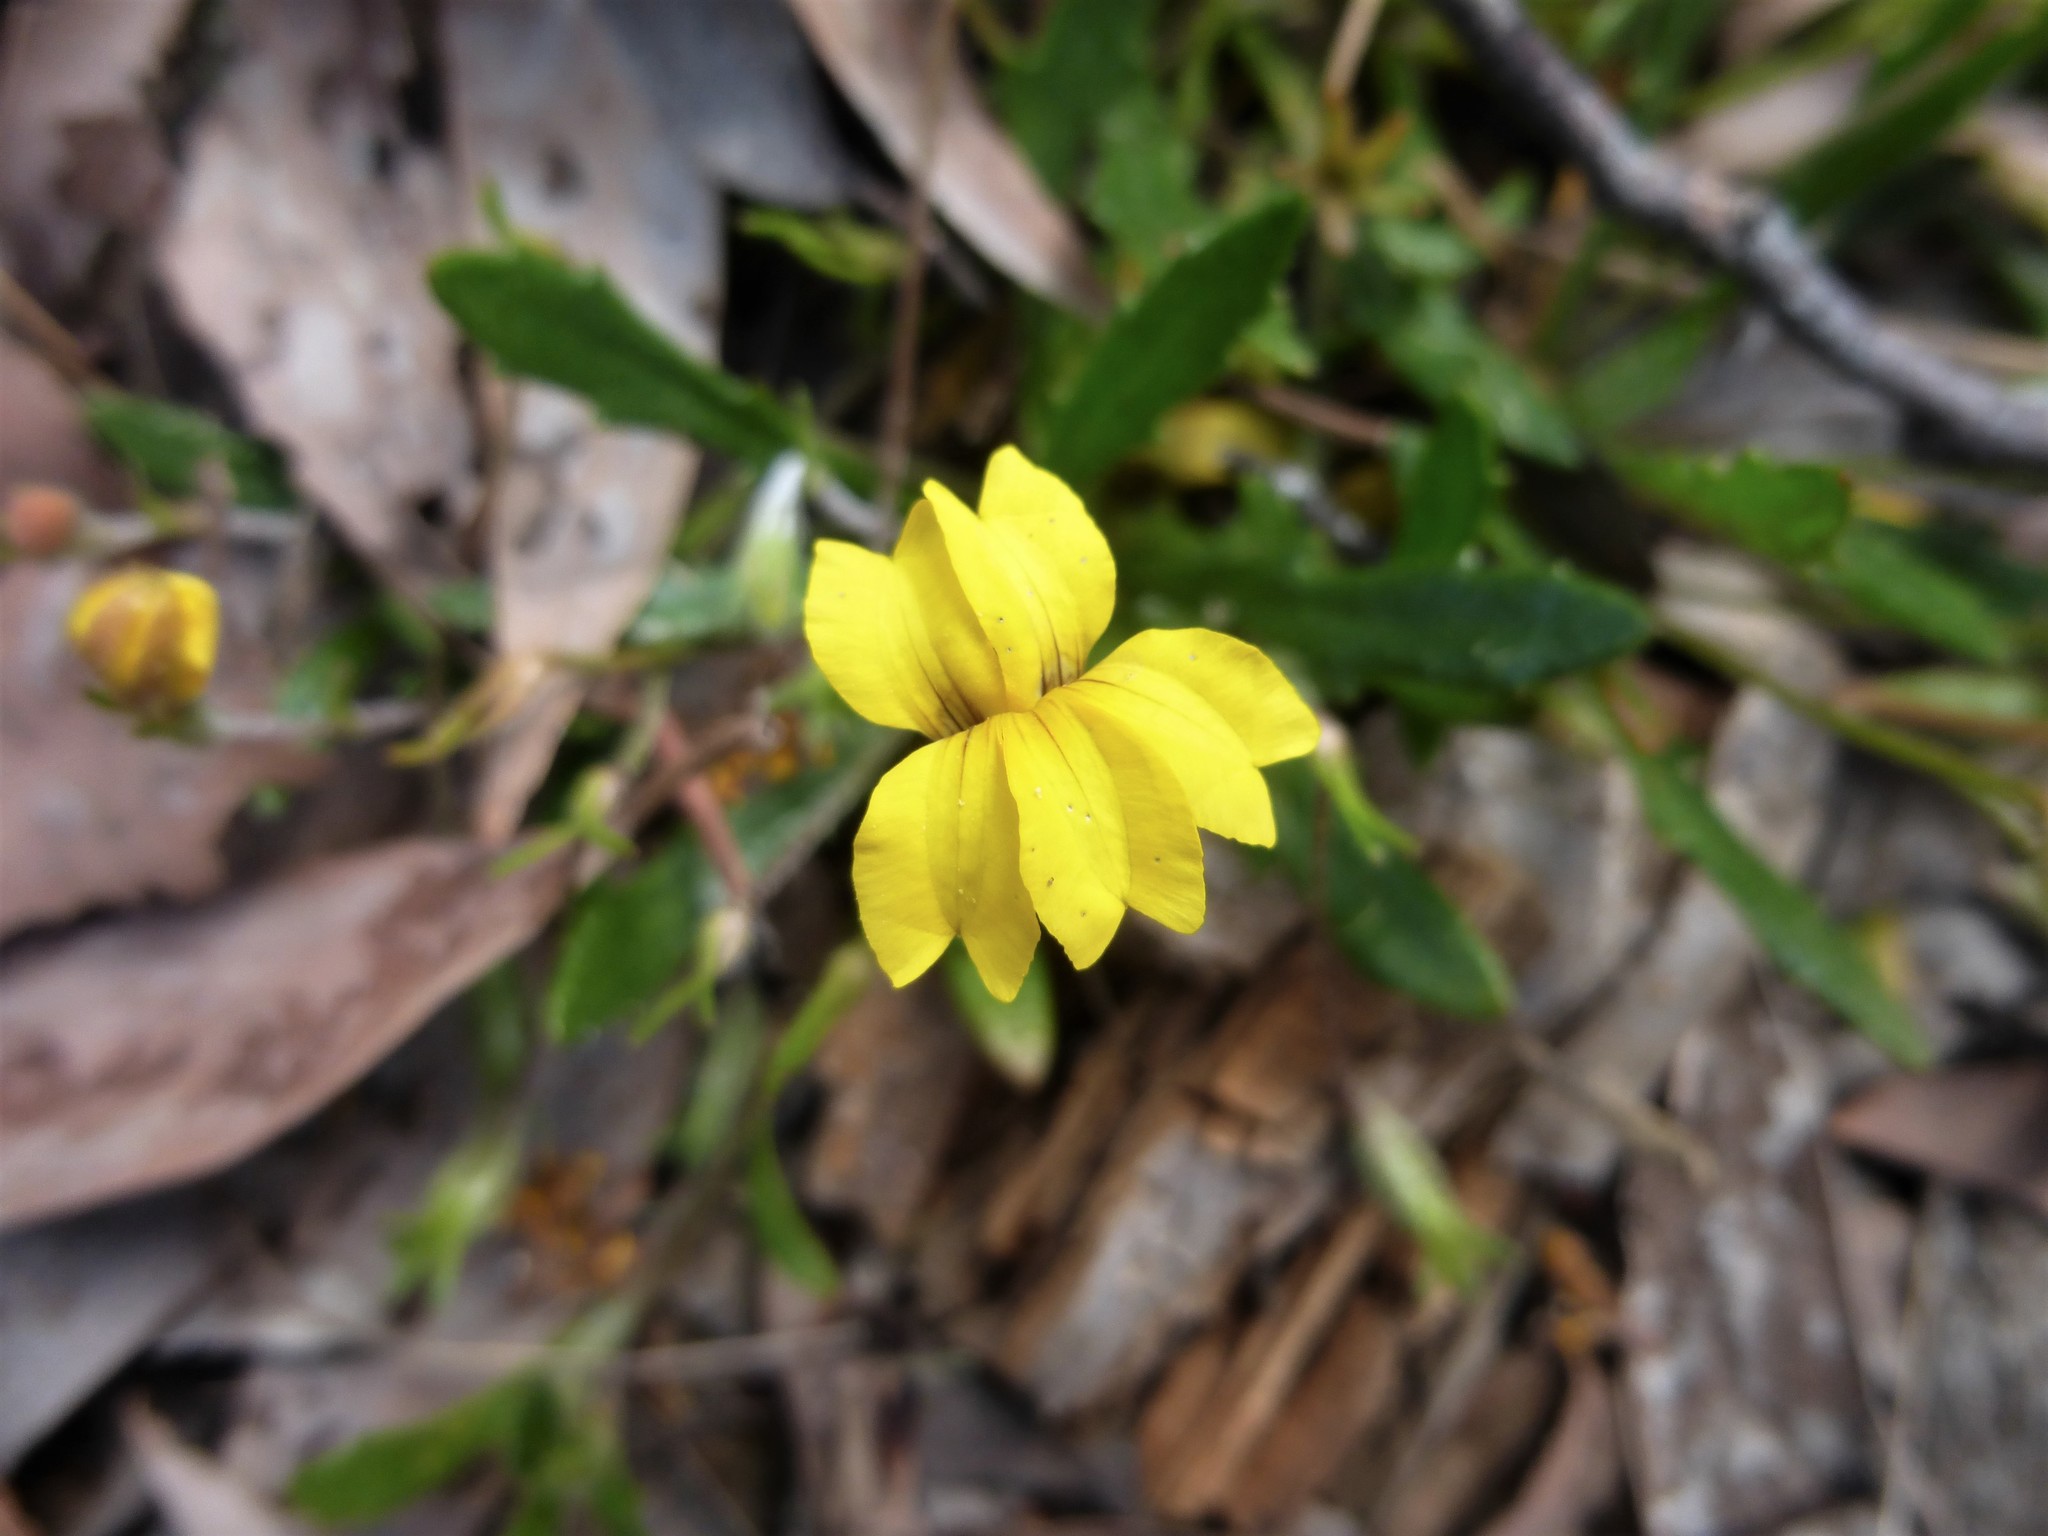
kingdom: Plantae
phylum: Tracheophyta
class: Magnoliopsida
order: Asterales
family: Goodeniaceae
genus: Goodenia
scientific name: Goodenia geniculata
